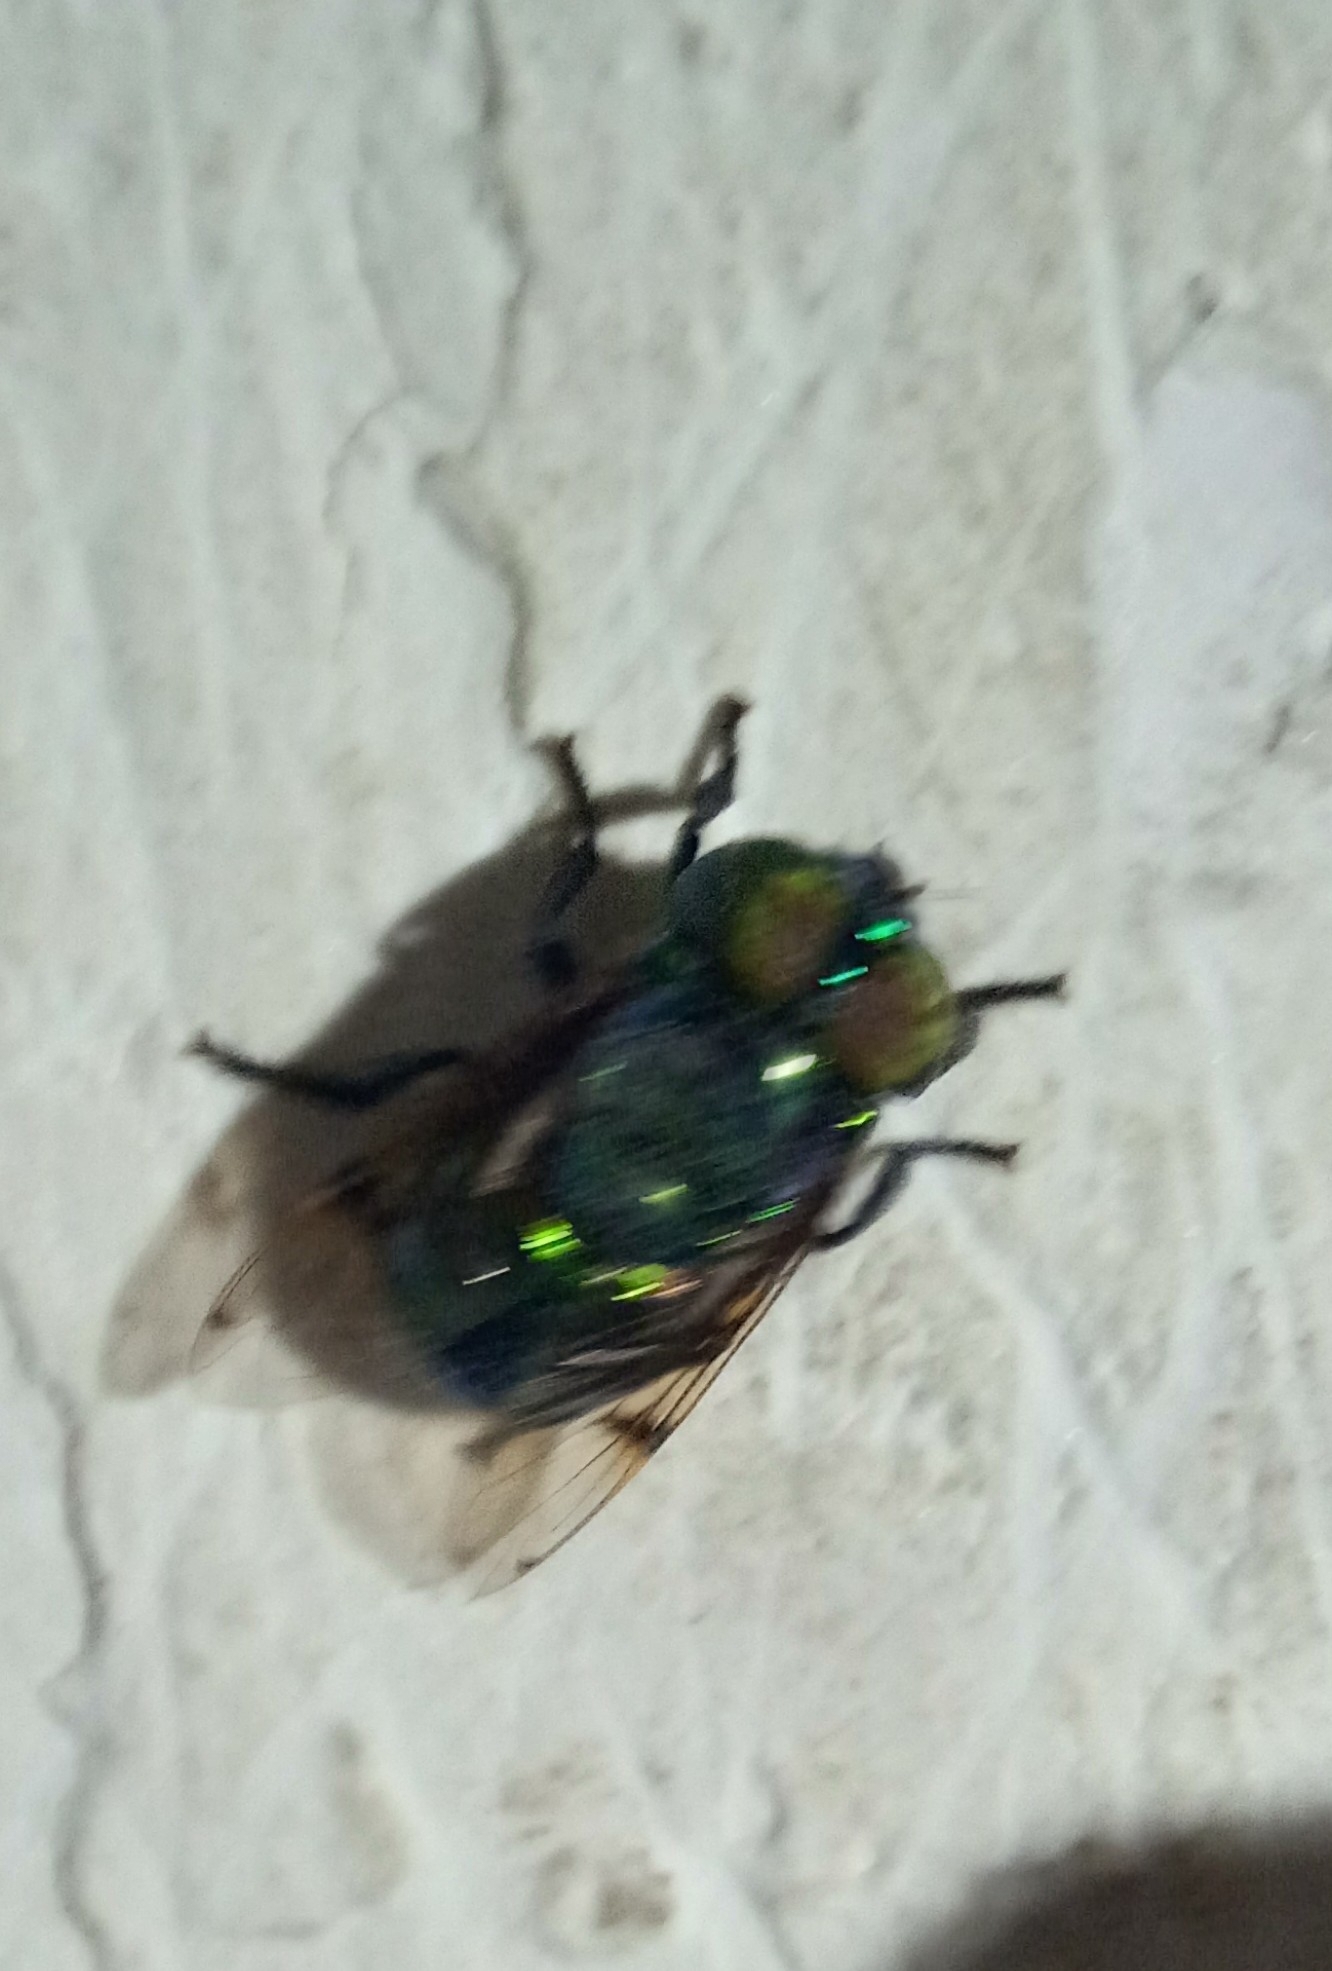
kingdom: Animalia
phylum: Arthropoda
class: Insecta
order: Diptera
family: Syrphidae
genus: Ornidia
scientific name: Ornidia obesa
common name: Syrphid fly
